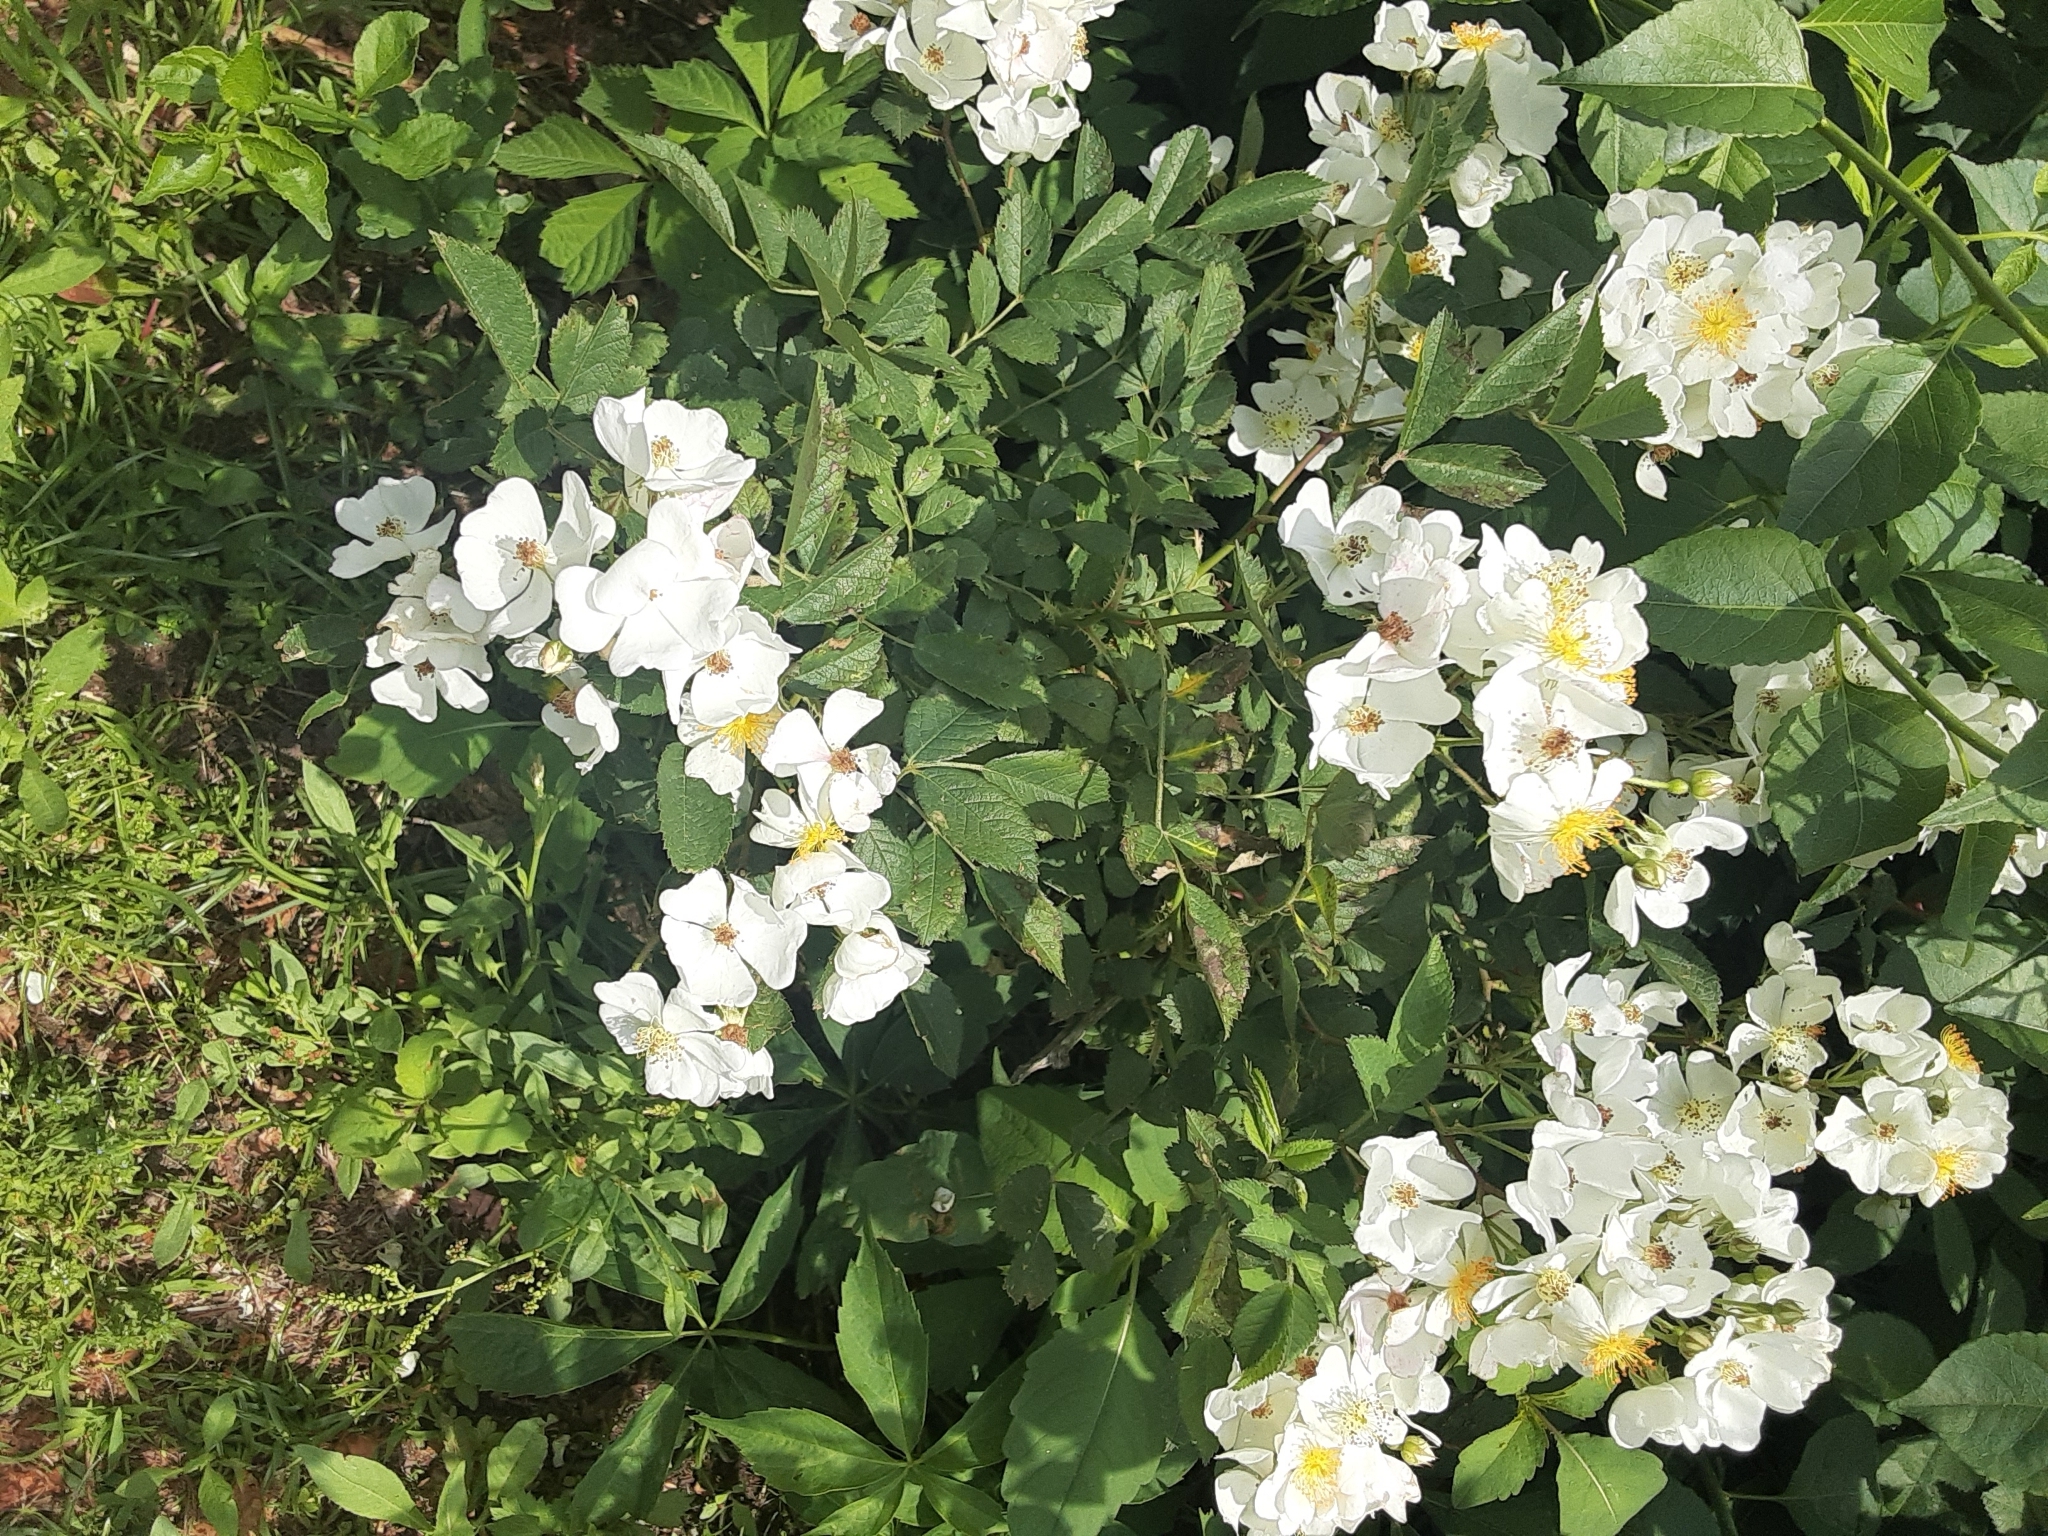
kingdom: Plantae
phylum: Tracheophyta
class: Magnoliopsida
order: Rosales
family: Rosaceae
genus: Rosa
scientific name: Rosa multiflora
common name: Multiflora rose
